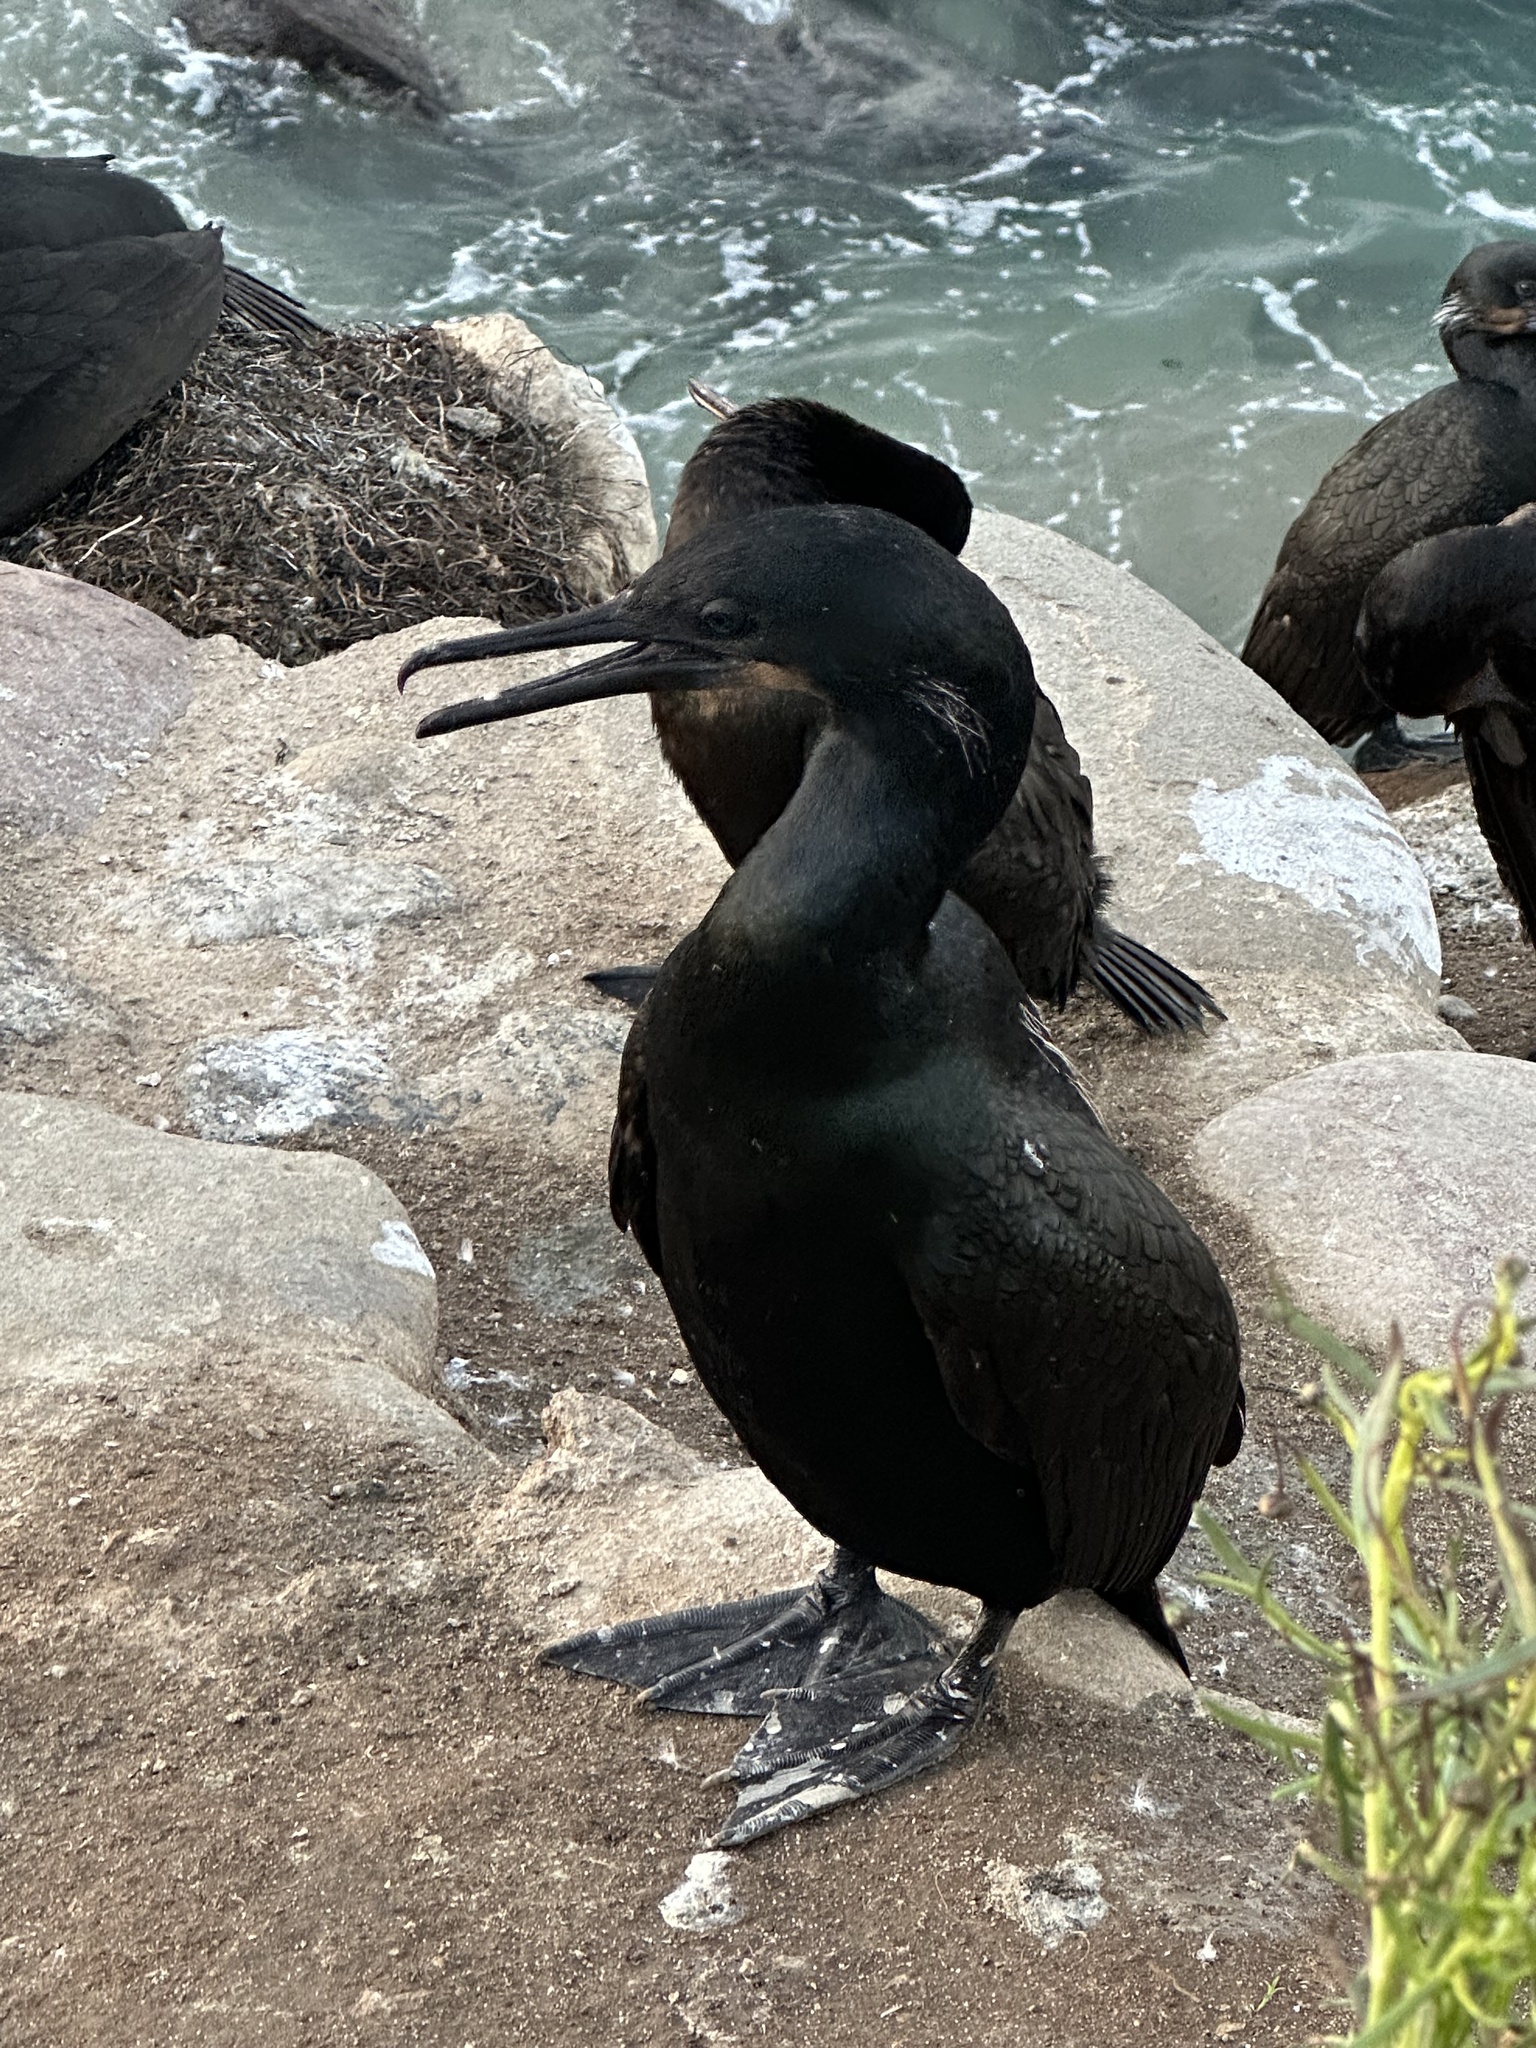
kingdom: Animalia
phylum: Chordata
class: Aves
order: Suliformes
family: Phalacrocoracidae
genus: Urile
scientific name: Urile penicillatus
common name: Brandt's cormorant
